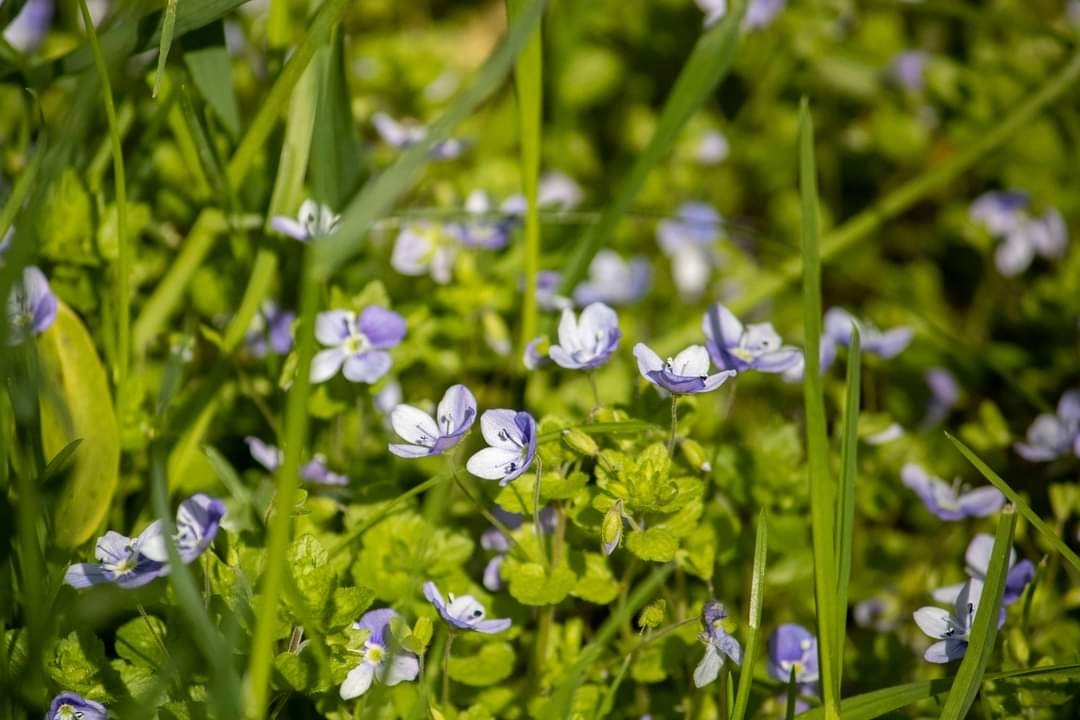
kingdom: Plantae
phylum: Tracheophyta
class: Magnoliopsida
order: Lamiales
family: Plantaginaceae
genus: Veronica
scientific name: Veronica filiformis
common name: Slender speedwell
